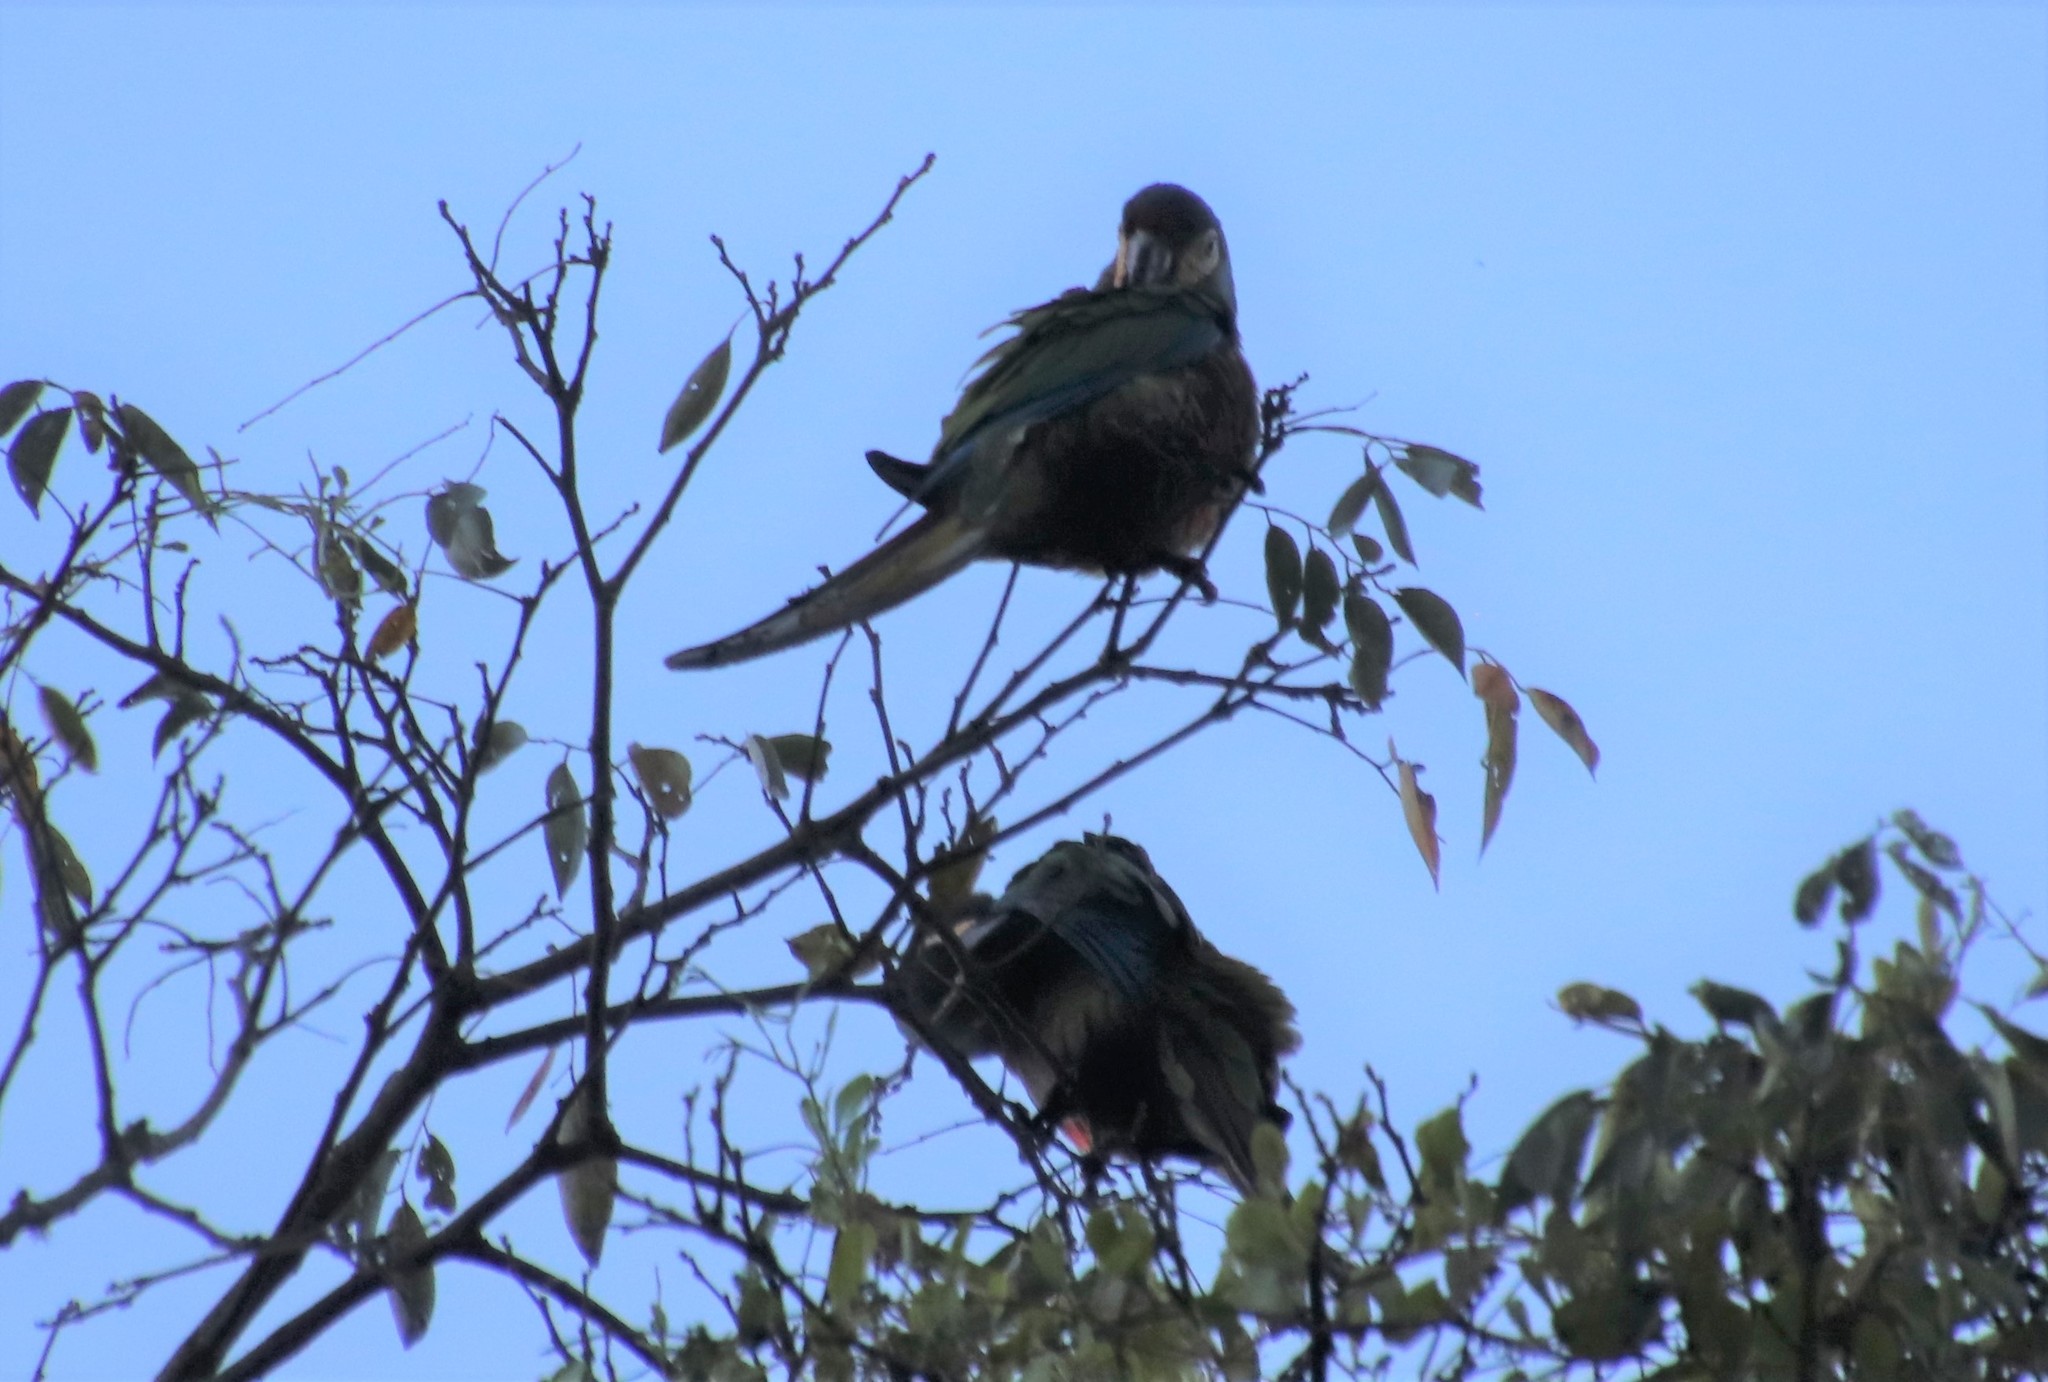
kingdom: Animalia
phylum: Chordata
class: Aves
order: Psittaciformes
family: Psittacidae
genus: Primolius
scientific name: Primolius maracana
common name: Blue-winged macaw
